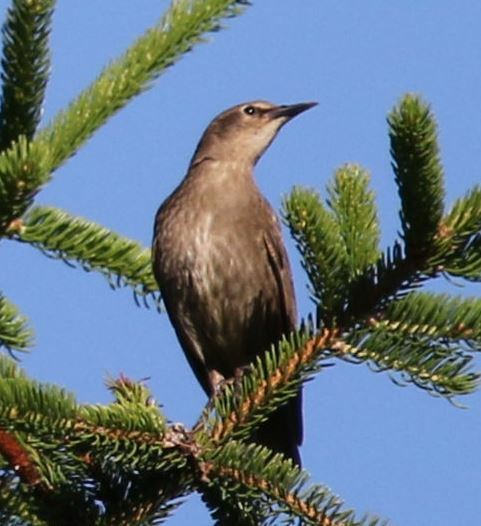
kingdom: Animalia
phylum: Chordata
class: Aves
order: Passeriformes
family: Sturnidae
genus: Sturnus
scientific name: Sturnus vulgaris
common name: Common starling
